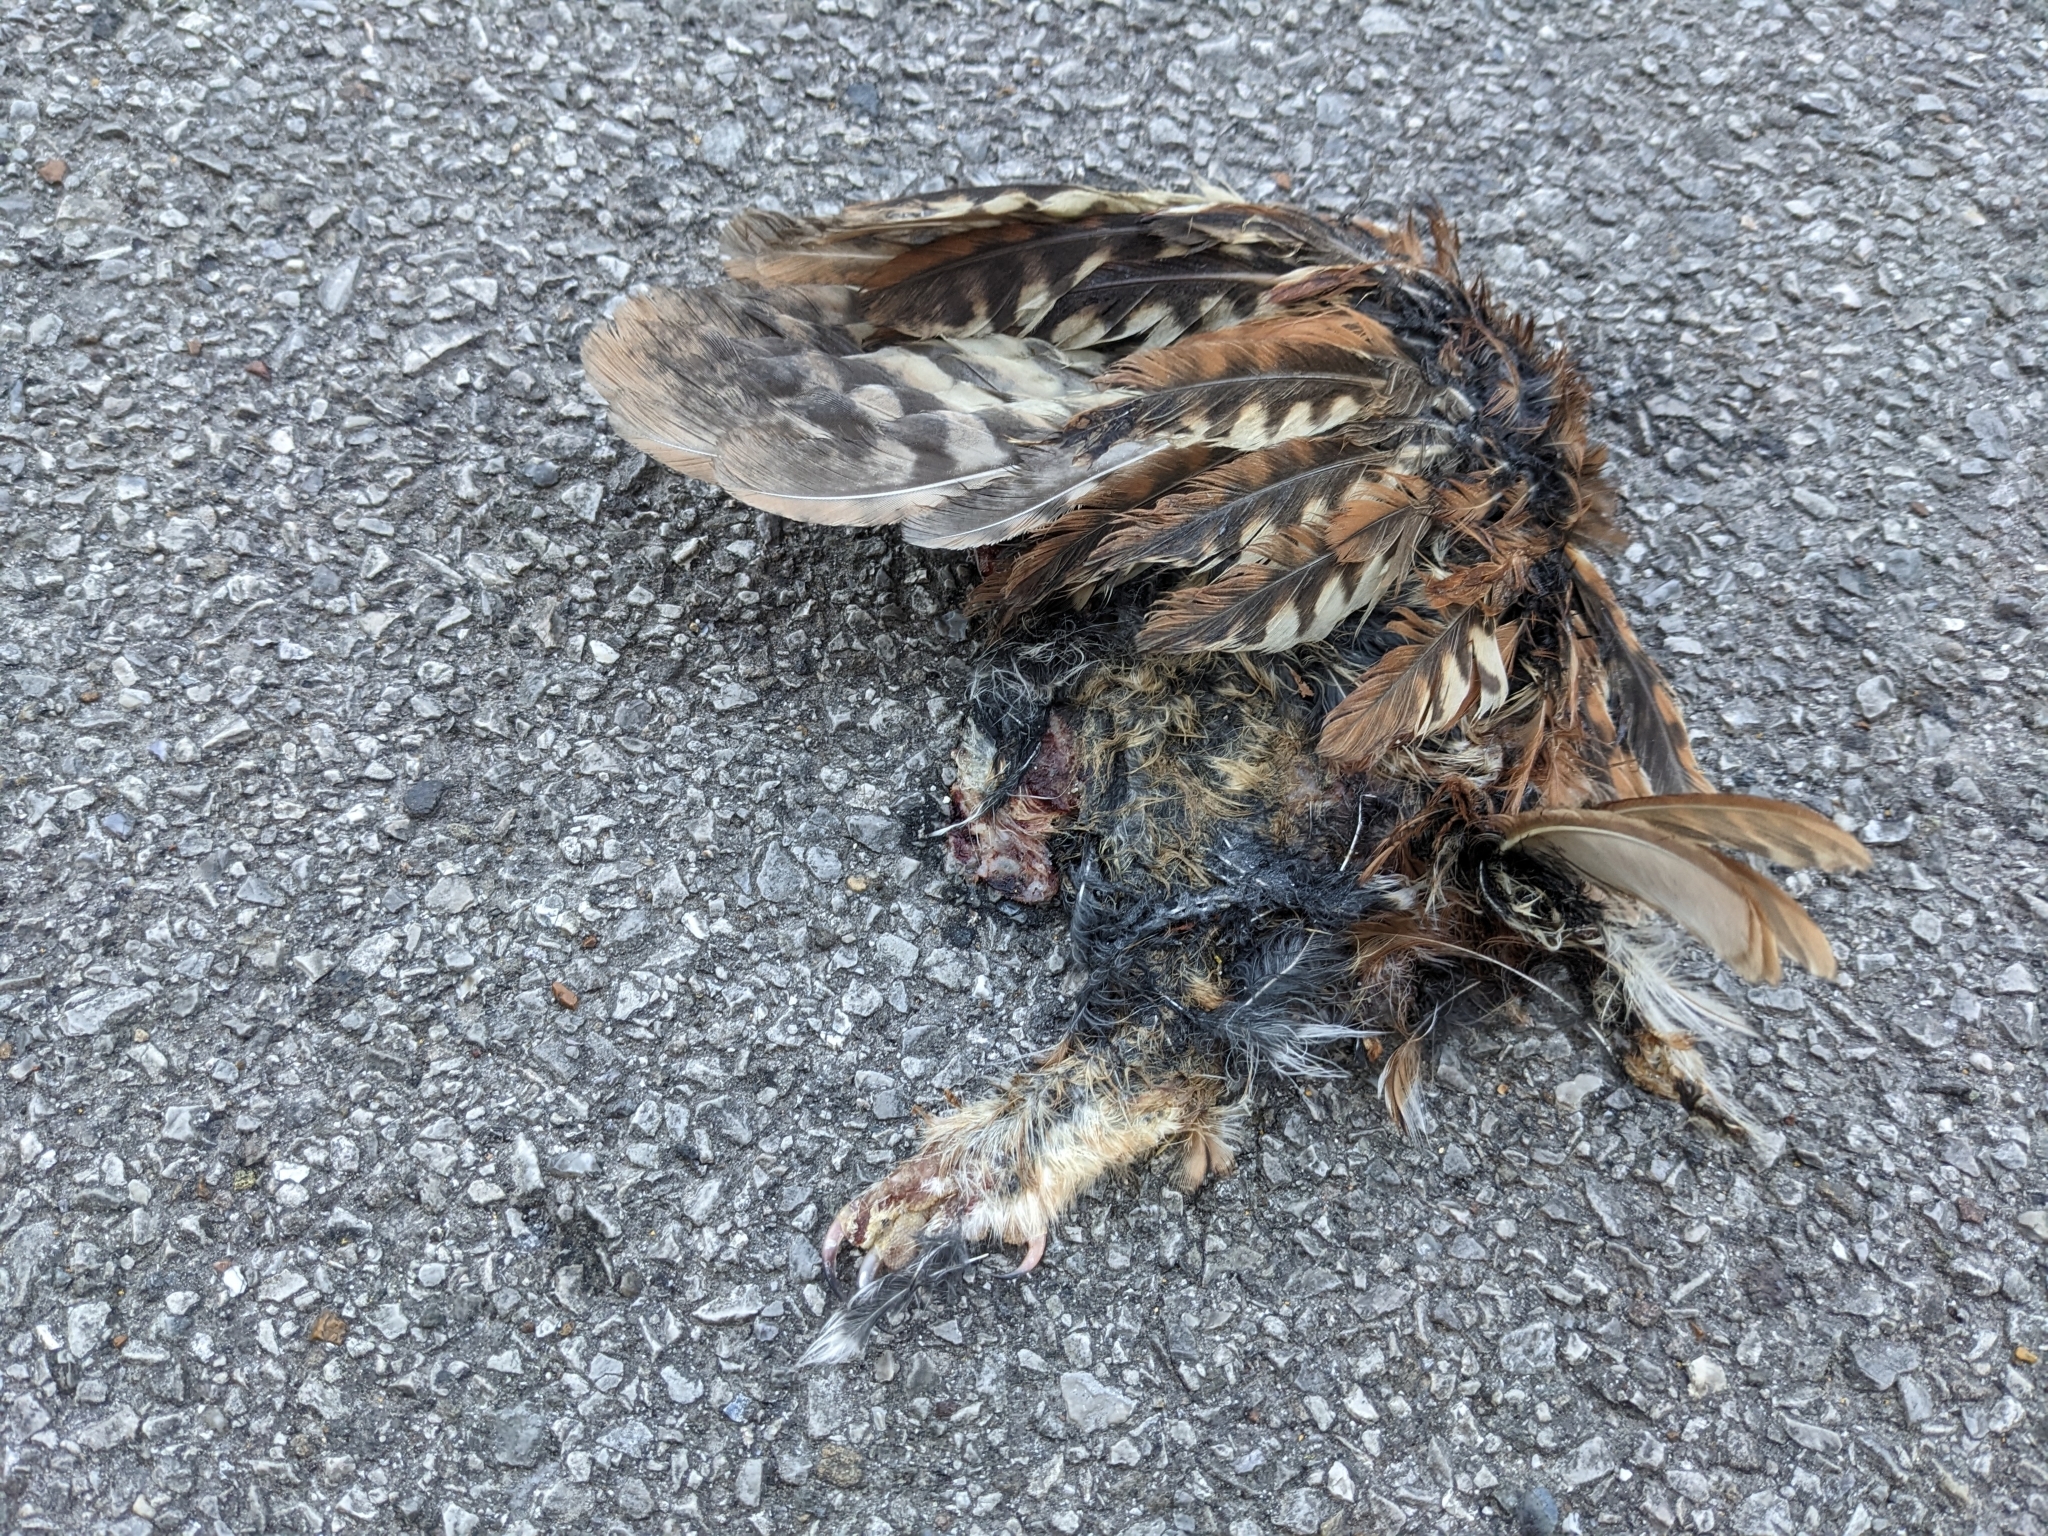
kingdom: Animalia
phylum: Chordata
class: Aves
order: Strigiformes
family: Strigidae
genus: Megascops
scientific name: Megascops asio
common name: Eastern screech-owl
